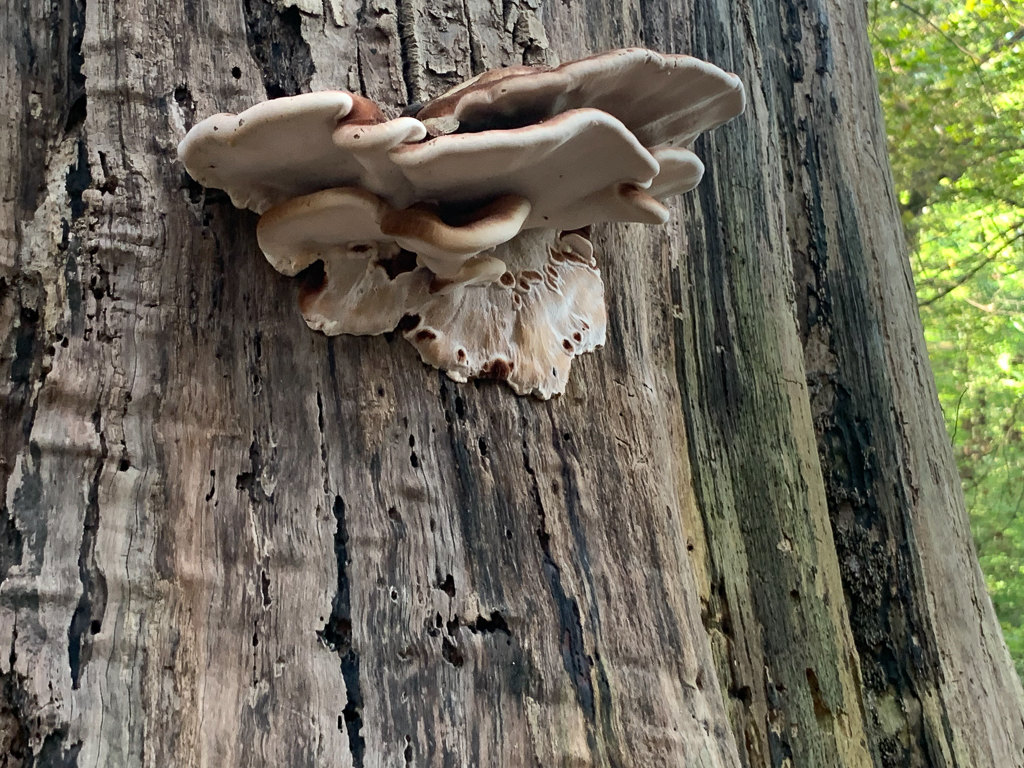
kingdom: Fungi
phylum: Basidiomycota
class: Agaricomycetes
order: Polyporales
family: Ischnodermataceae
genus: Ischnoderma
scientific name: Ischnoderma resinosum
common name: Resinous polypore
